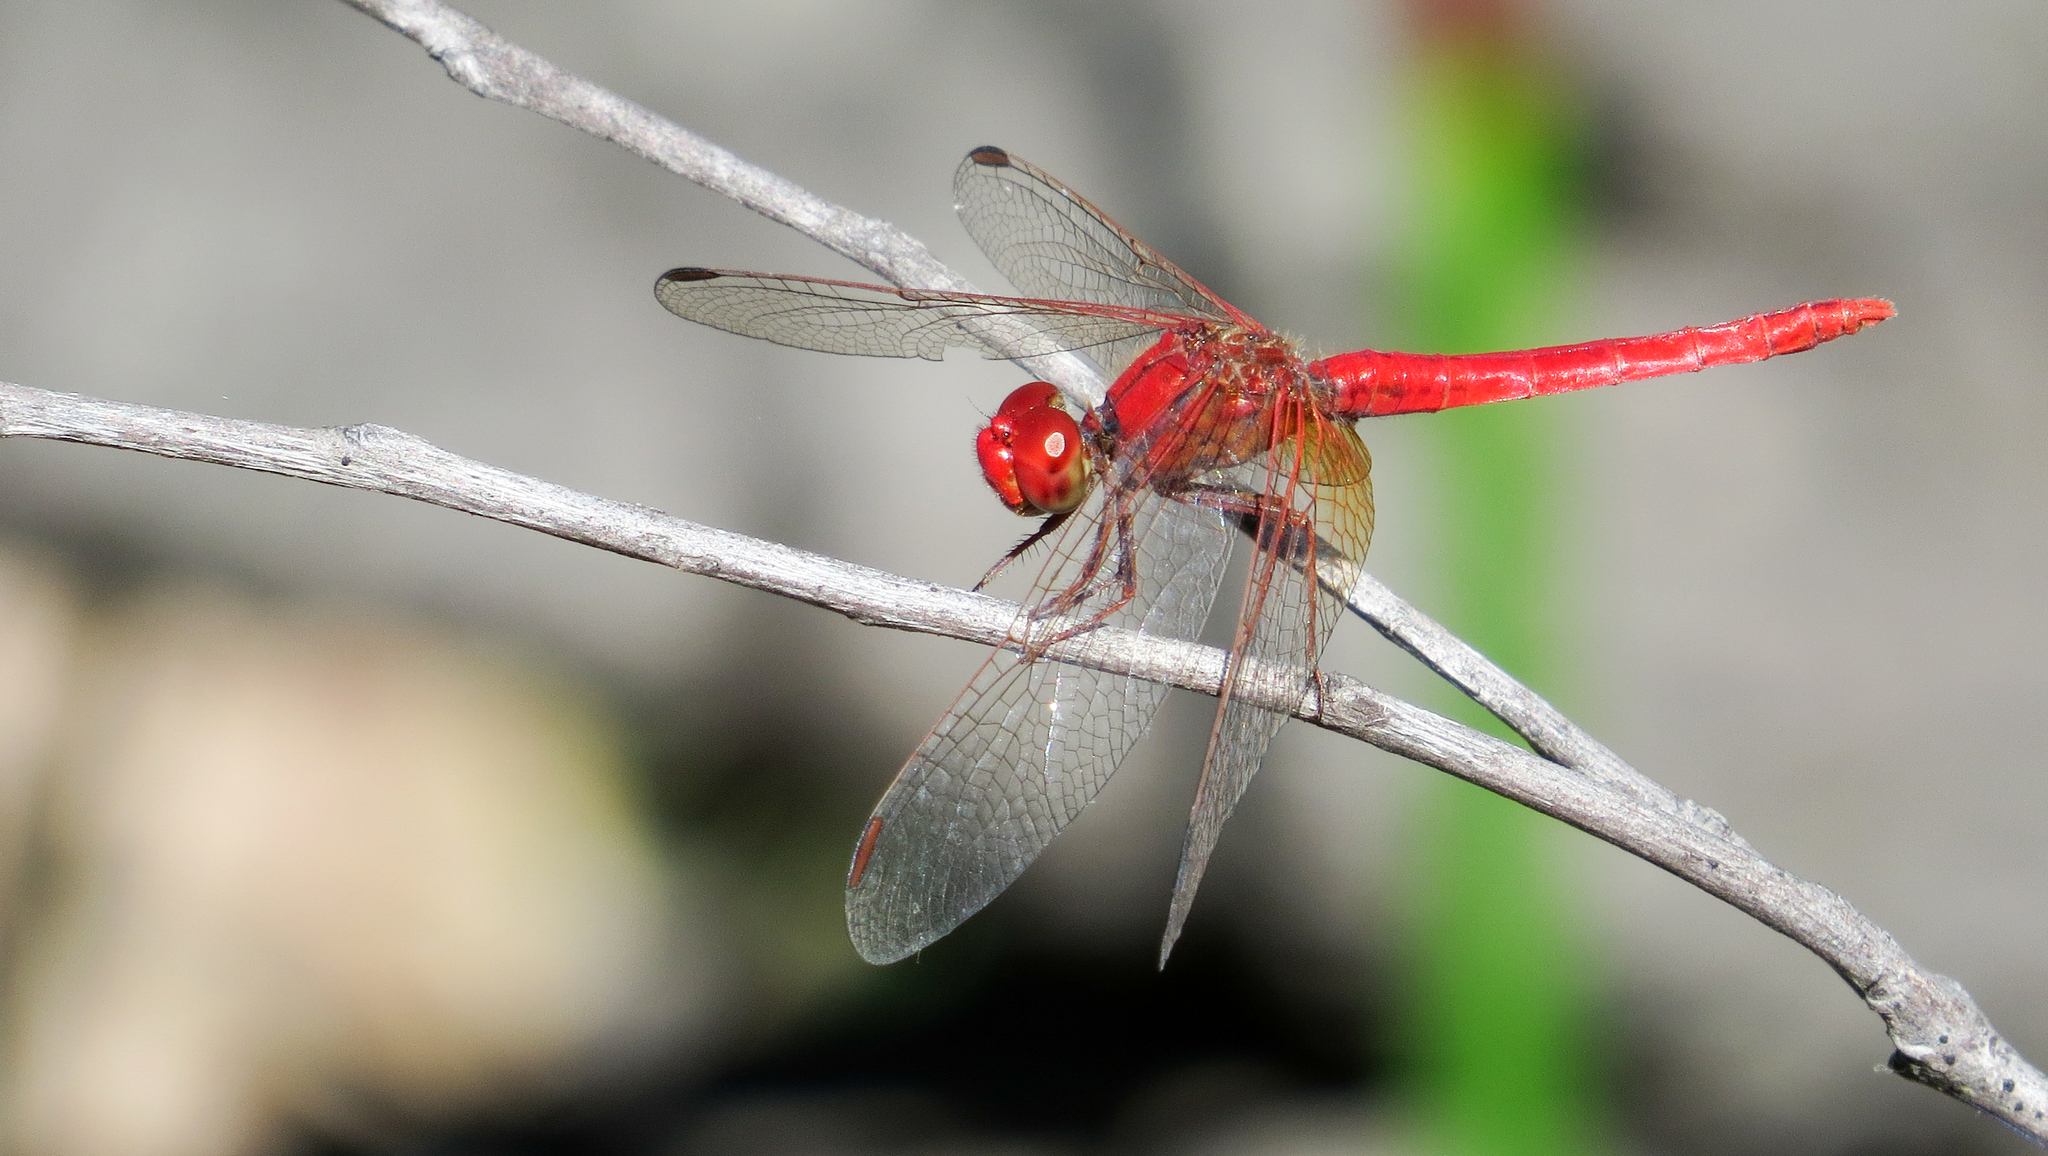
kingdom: Animalia
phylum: Arthropoda
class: Insecta
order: Odonata
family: Libellulidae
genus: Diplacodes
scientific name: Diplacodes haematodes
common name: Scarlet percher
